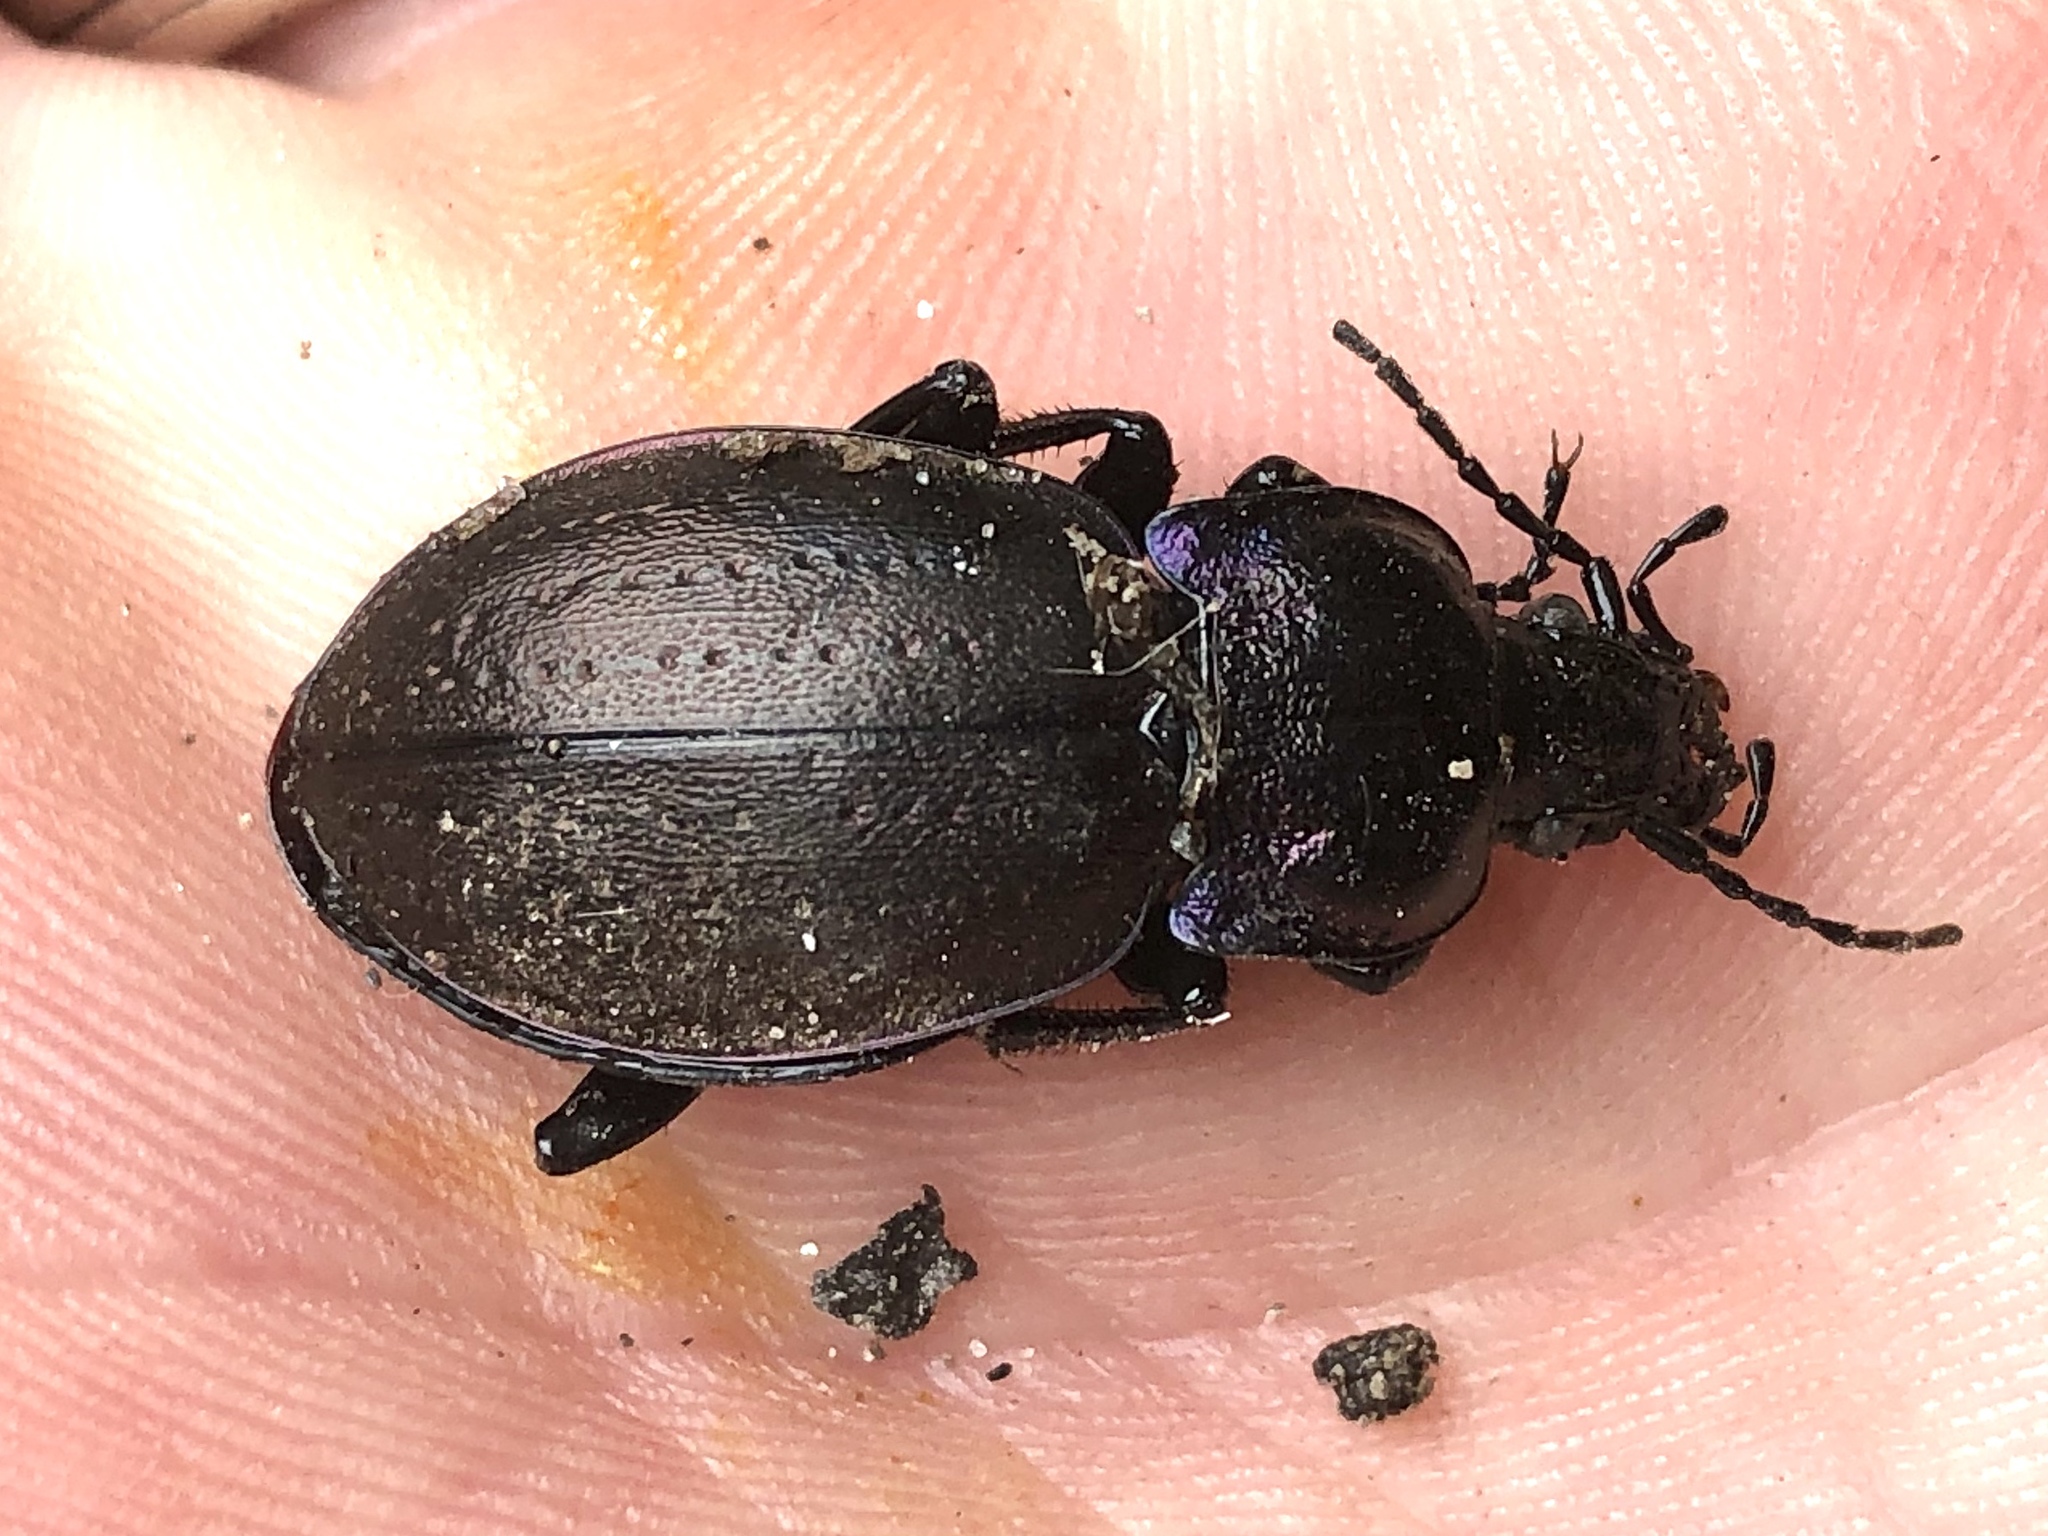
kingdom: Animalia
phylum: Arthropoda
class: Insecta
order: Coleoptera
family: Carabidae
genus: Carabus
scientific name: Carabus nemoralis
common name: European ground beetle
